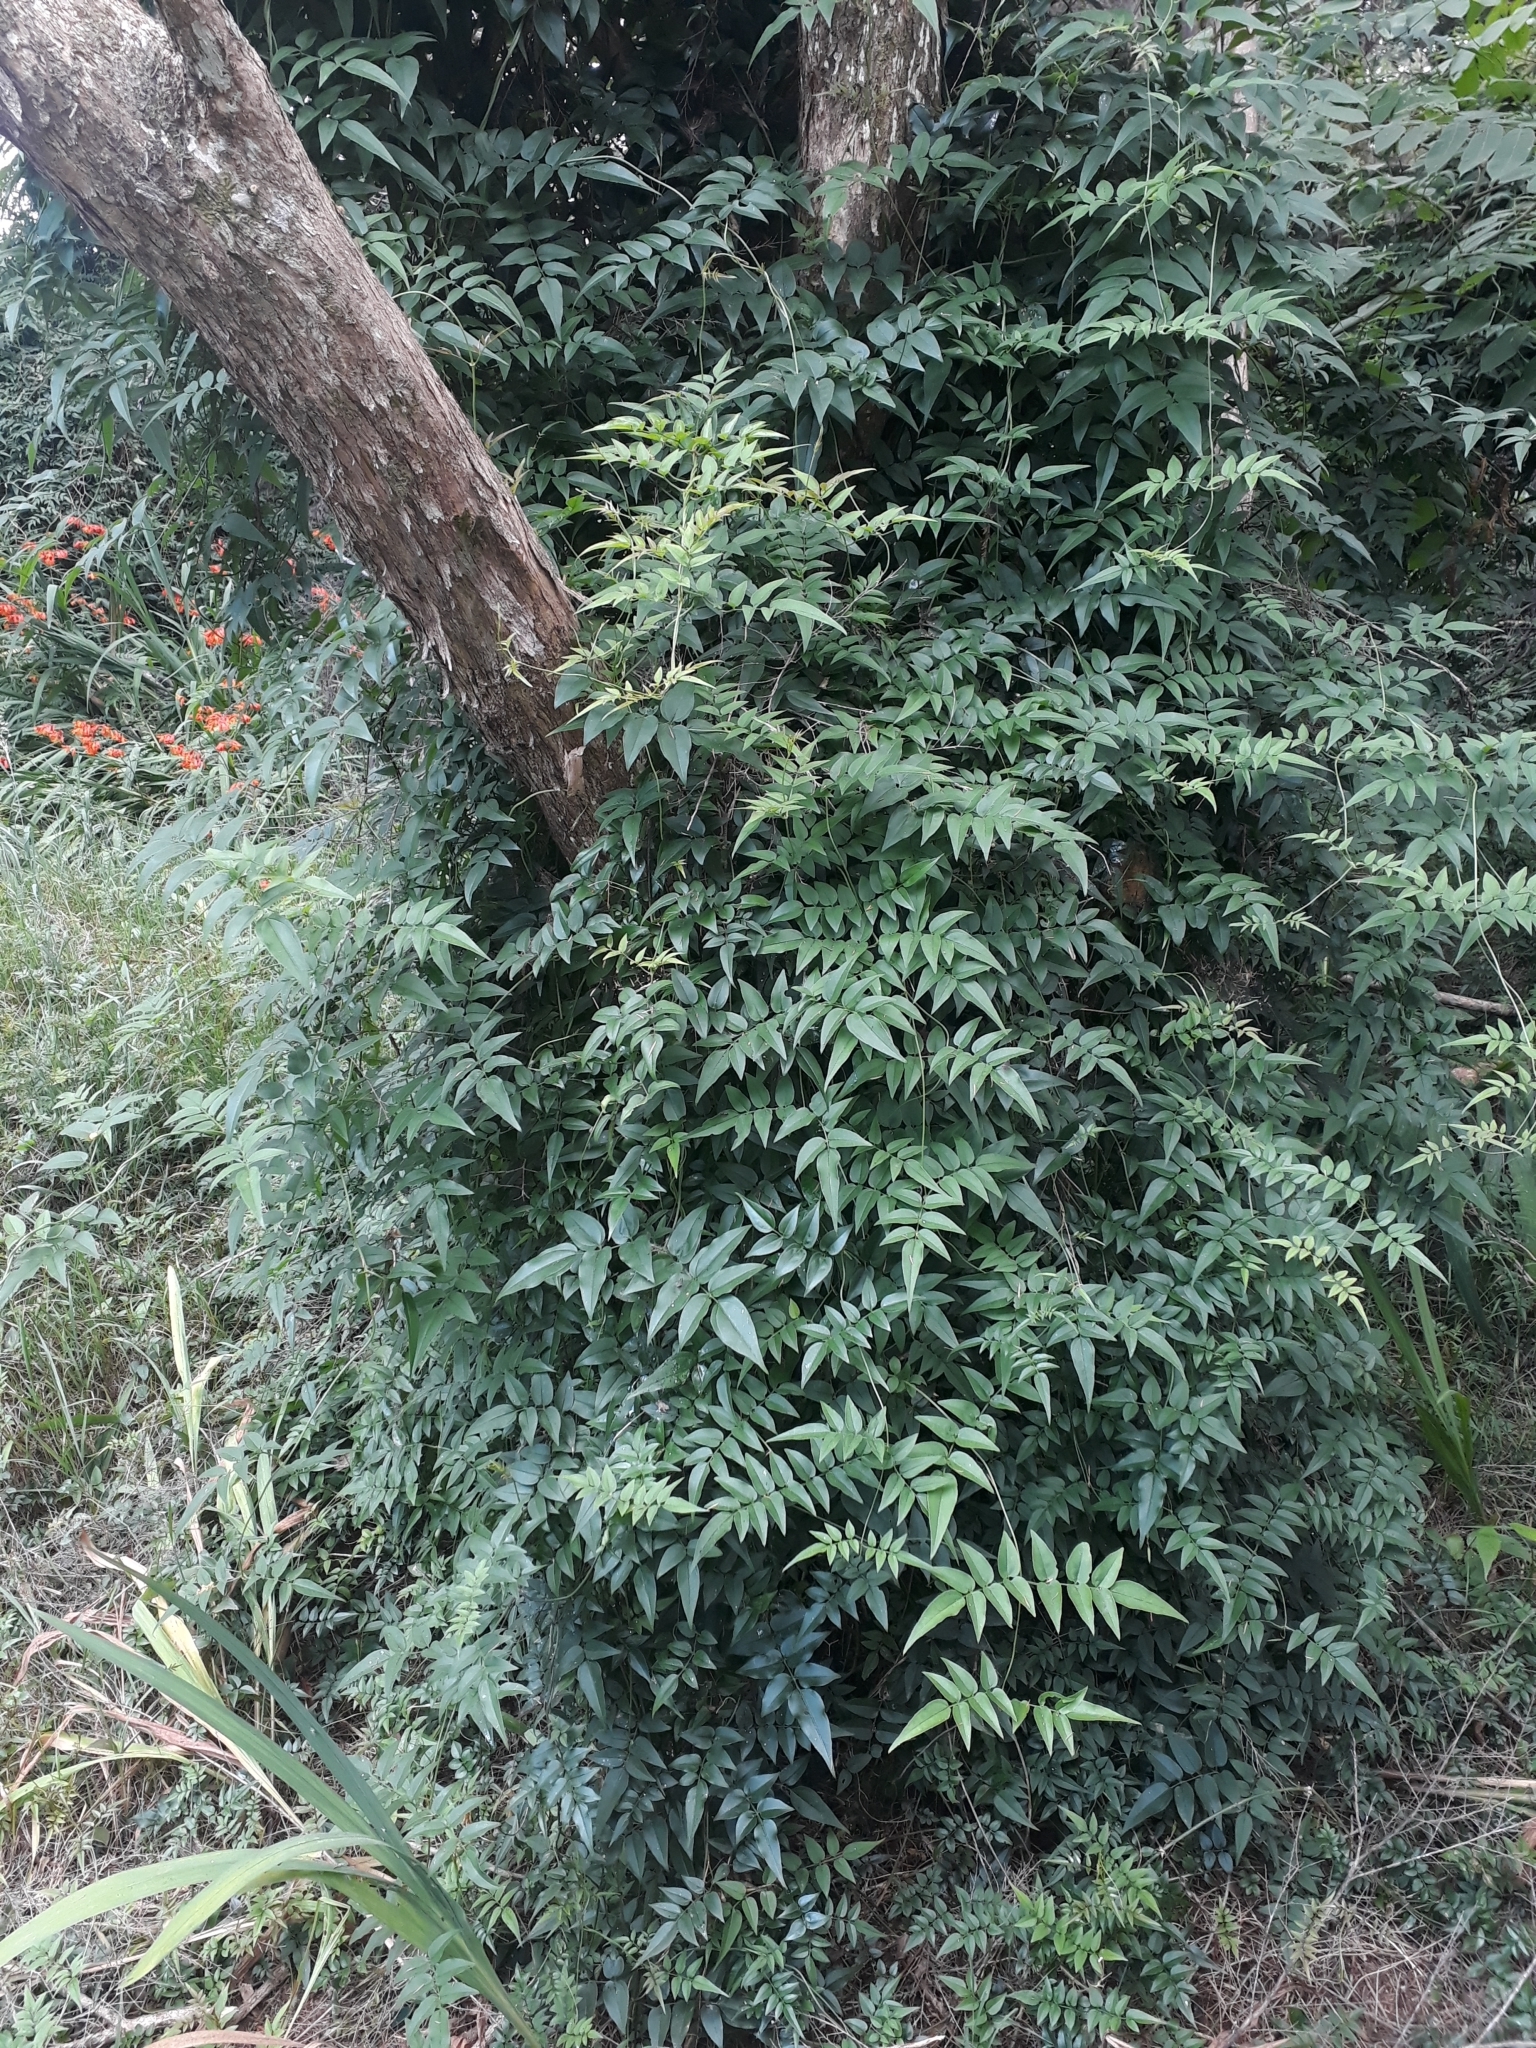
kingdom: Plantae
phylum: Tracheophyta
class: Magnoliopsida
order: Lamiales
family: Oleaceae
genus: Jasminum
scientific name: Jasminum polyanthum
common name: Pink jasmine
